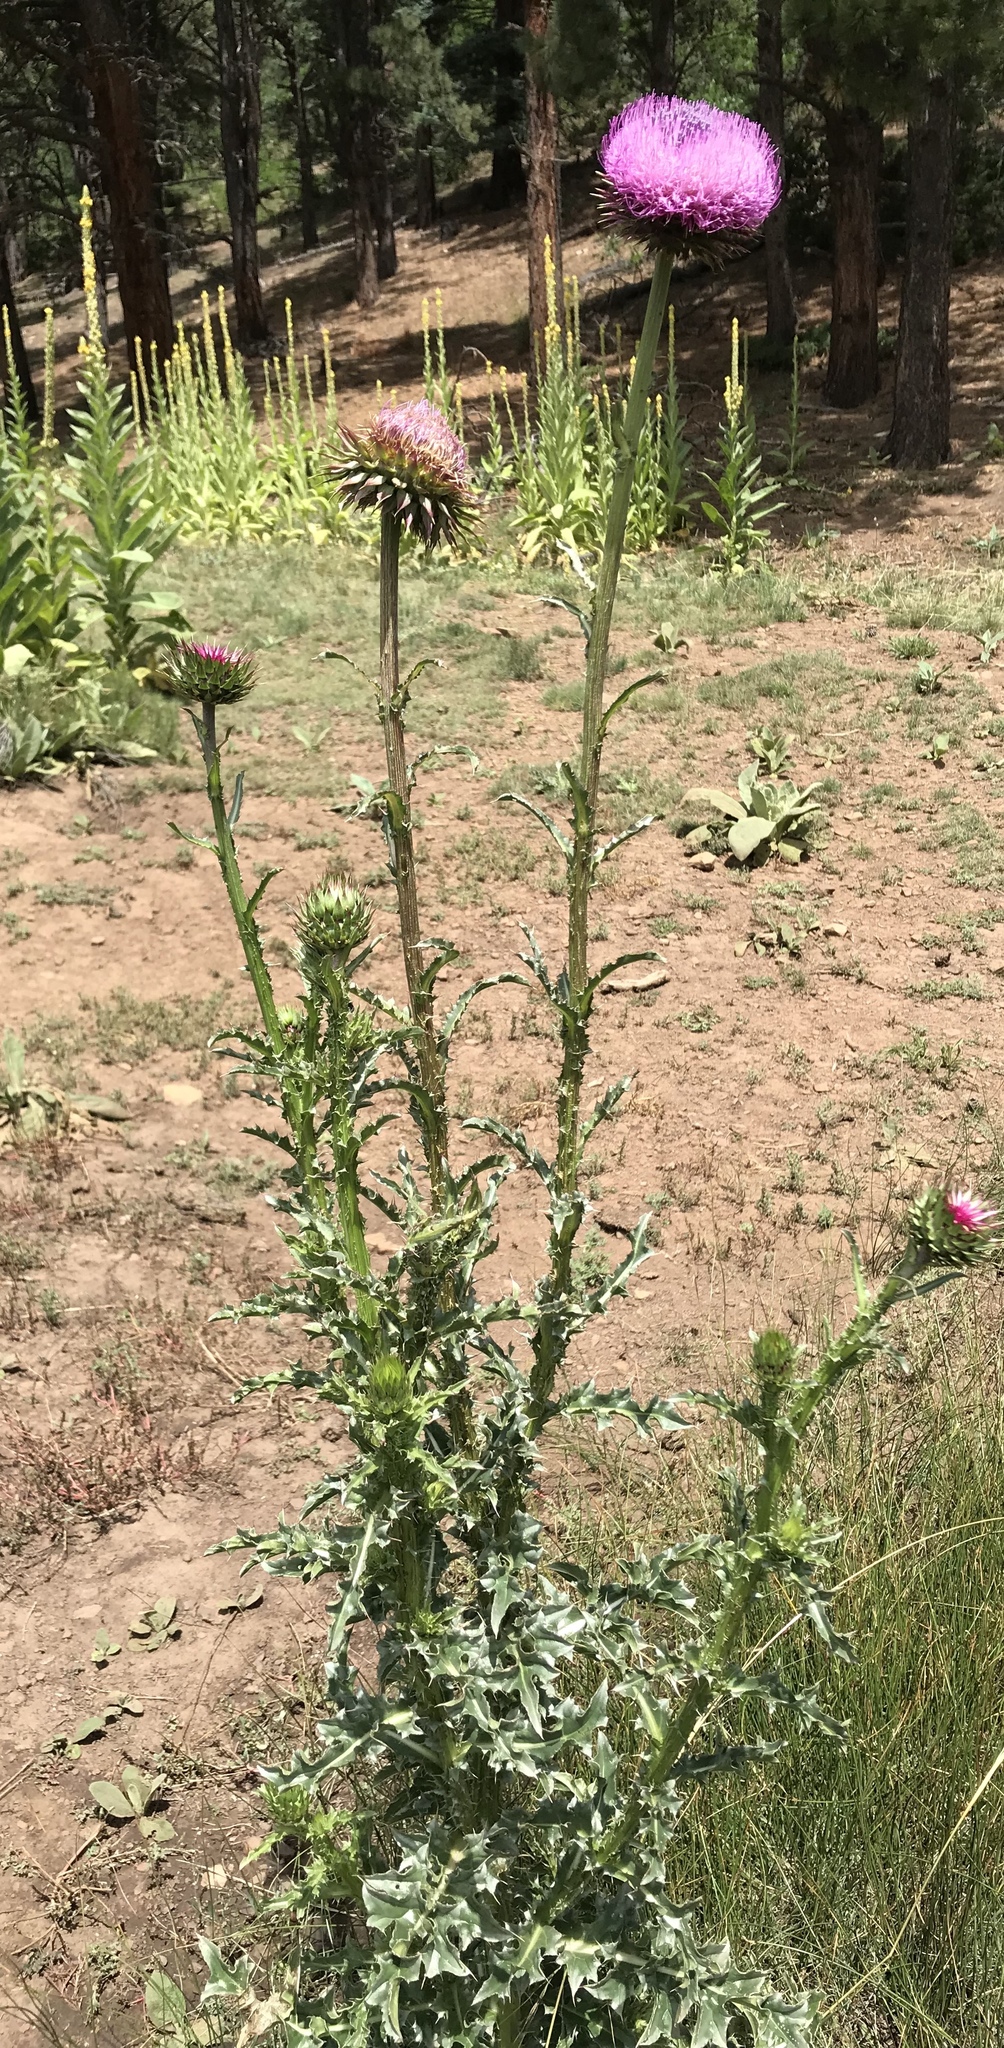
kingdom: Plantae
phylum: Tracheophyta
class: Magnoliopsida
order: Asterales
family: Asteraceae
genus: Carduus
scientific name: Carduus nutans
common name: Musk thistle
